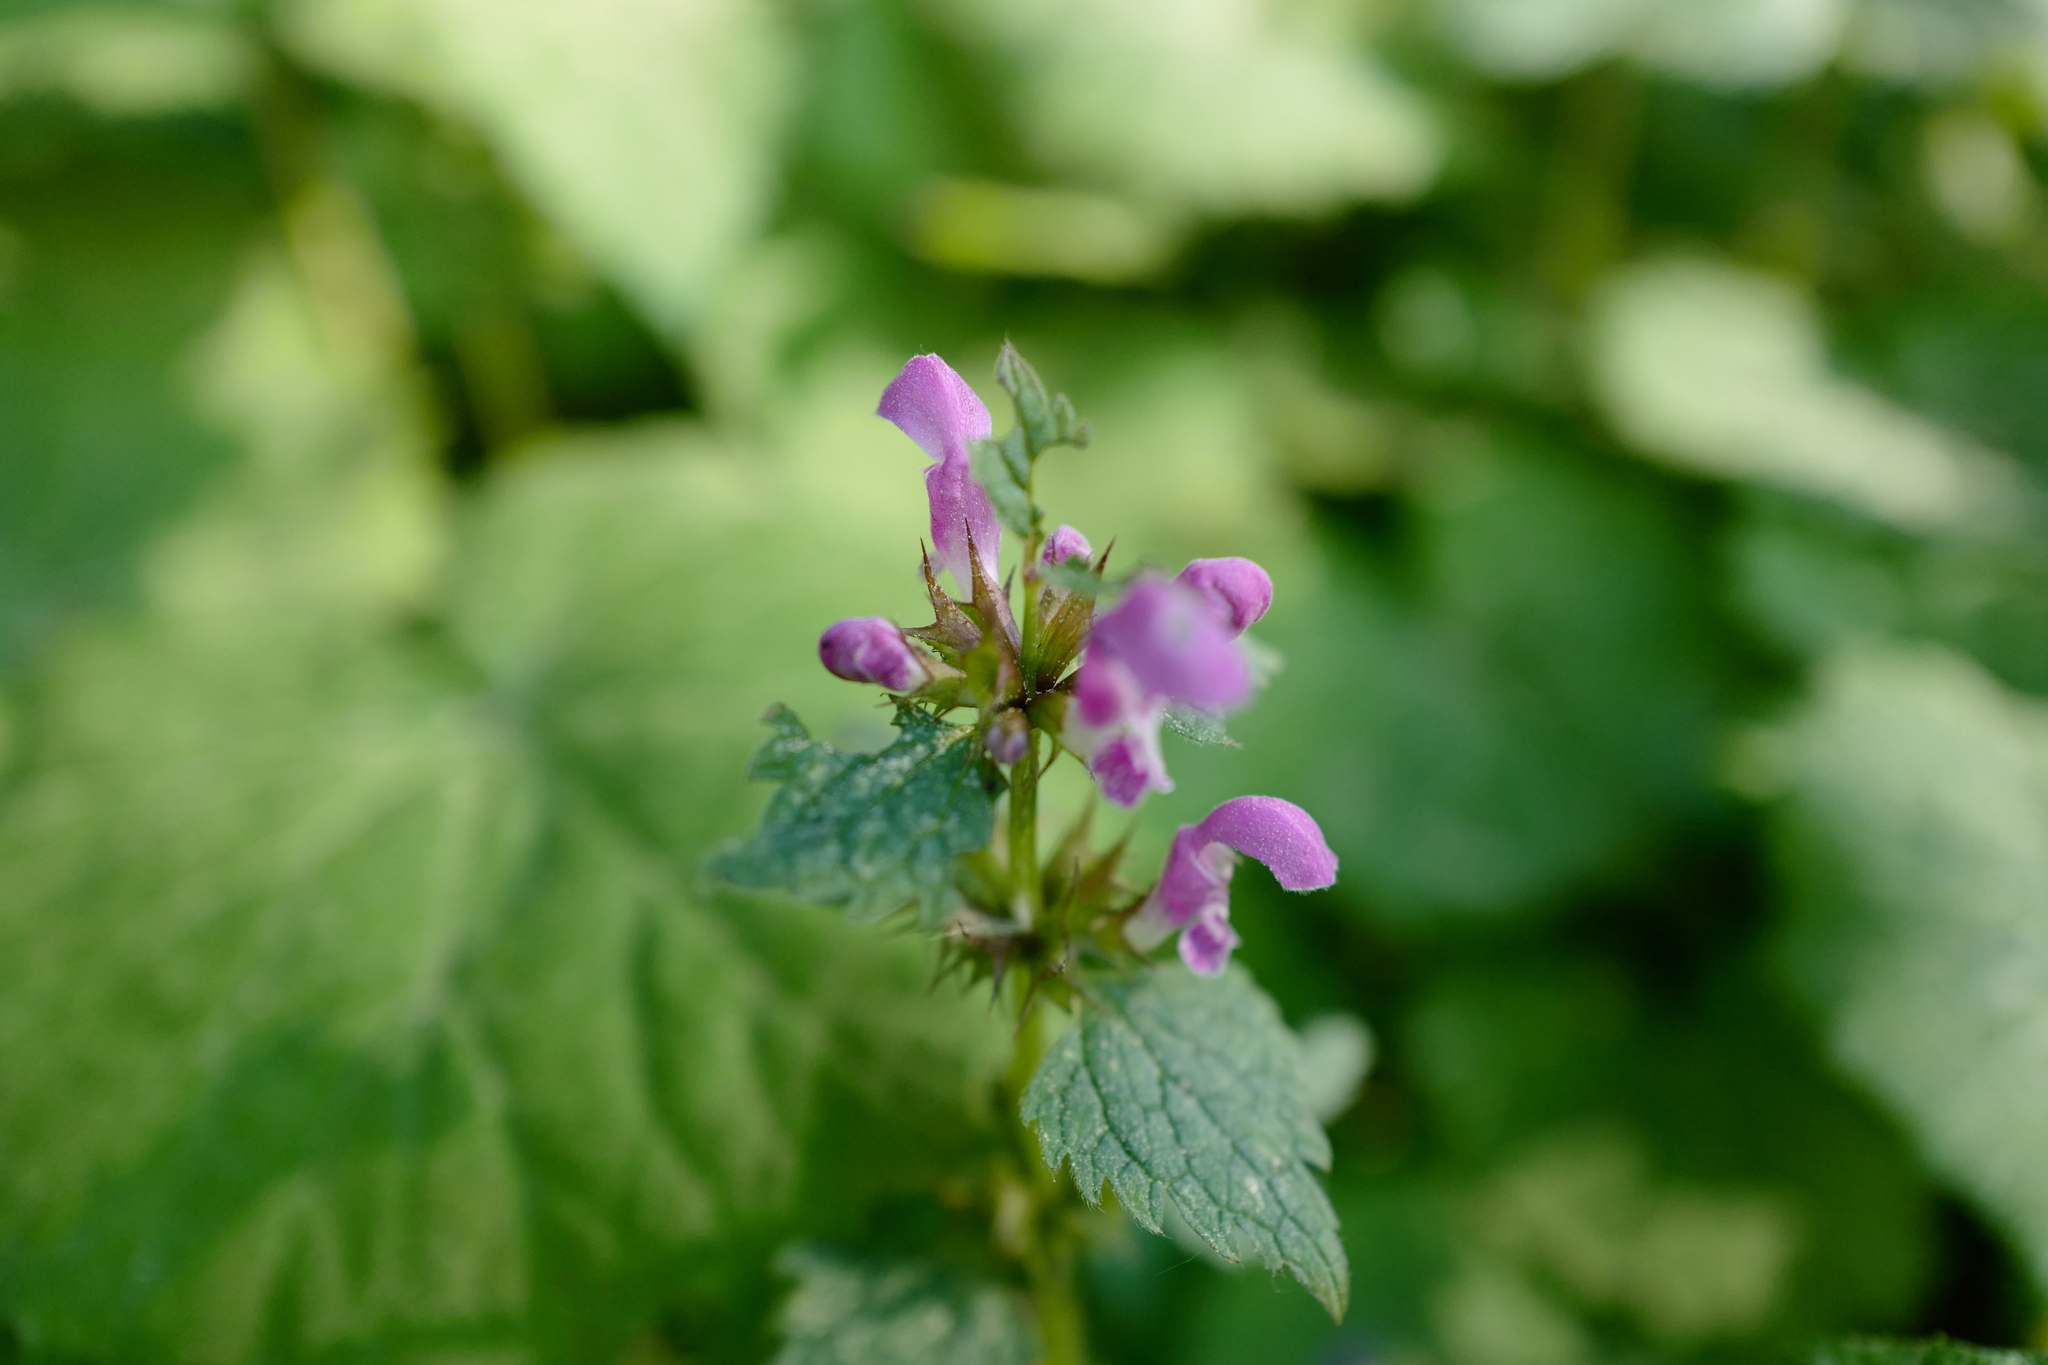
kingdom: Plantae
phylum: Tracheophyta
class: Magnoliopsida
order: Lamiales
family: Lamiaceae
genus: Lamium
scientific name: Lamium maculatum
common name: Spotted dead-nettle
